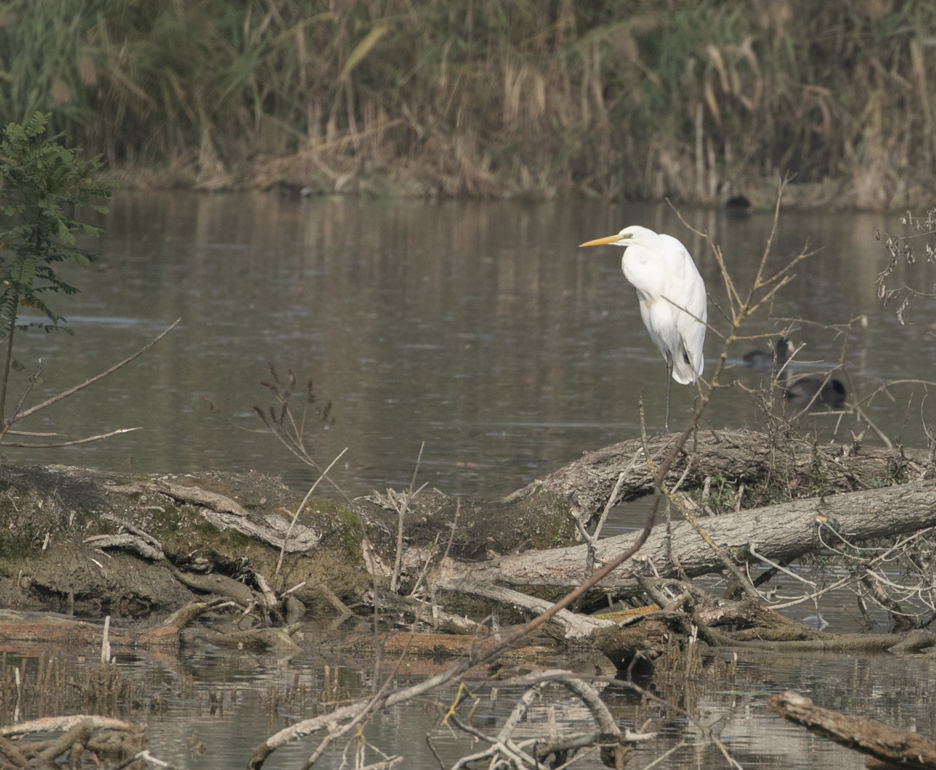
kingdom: Animalia
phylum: Chordata
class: Aves
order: Pelecaniformes
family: Ardeidae
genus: Ardea
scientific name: Ardea alba
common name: Great egret
